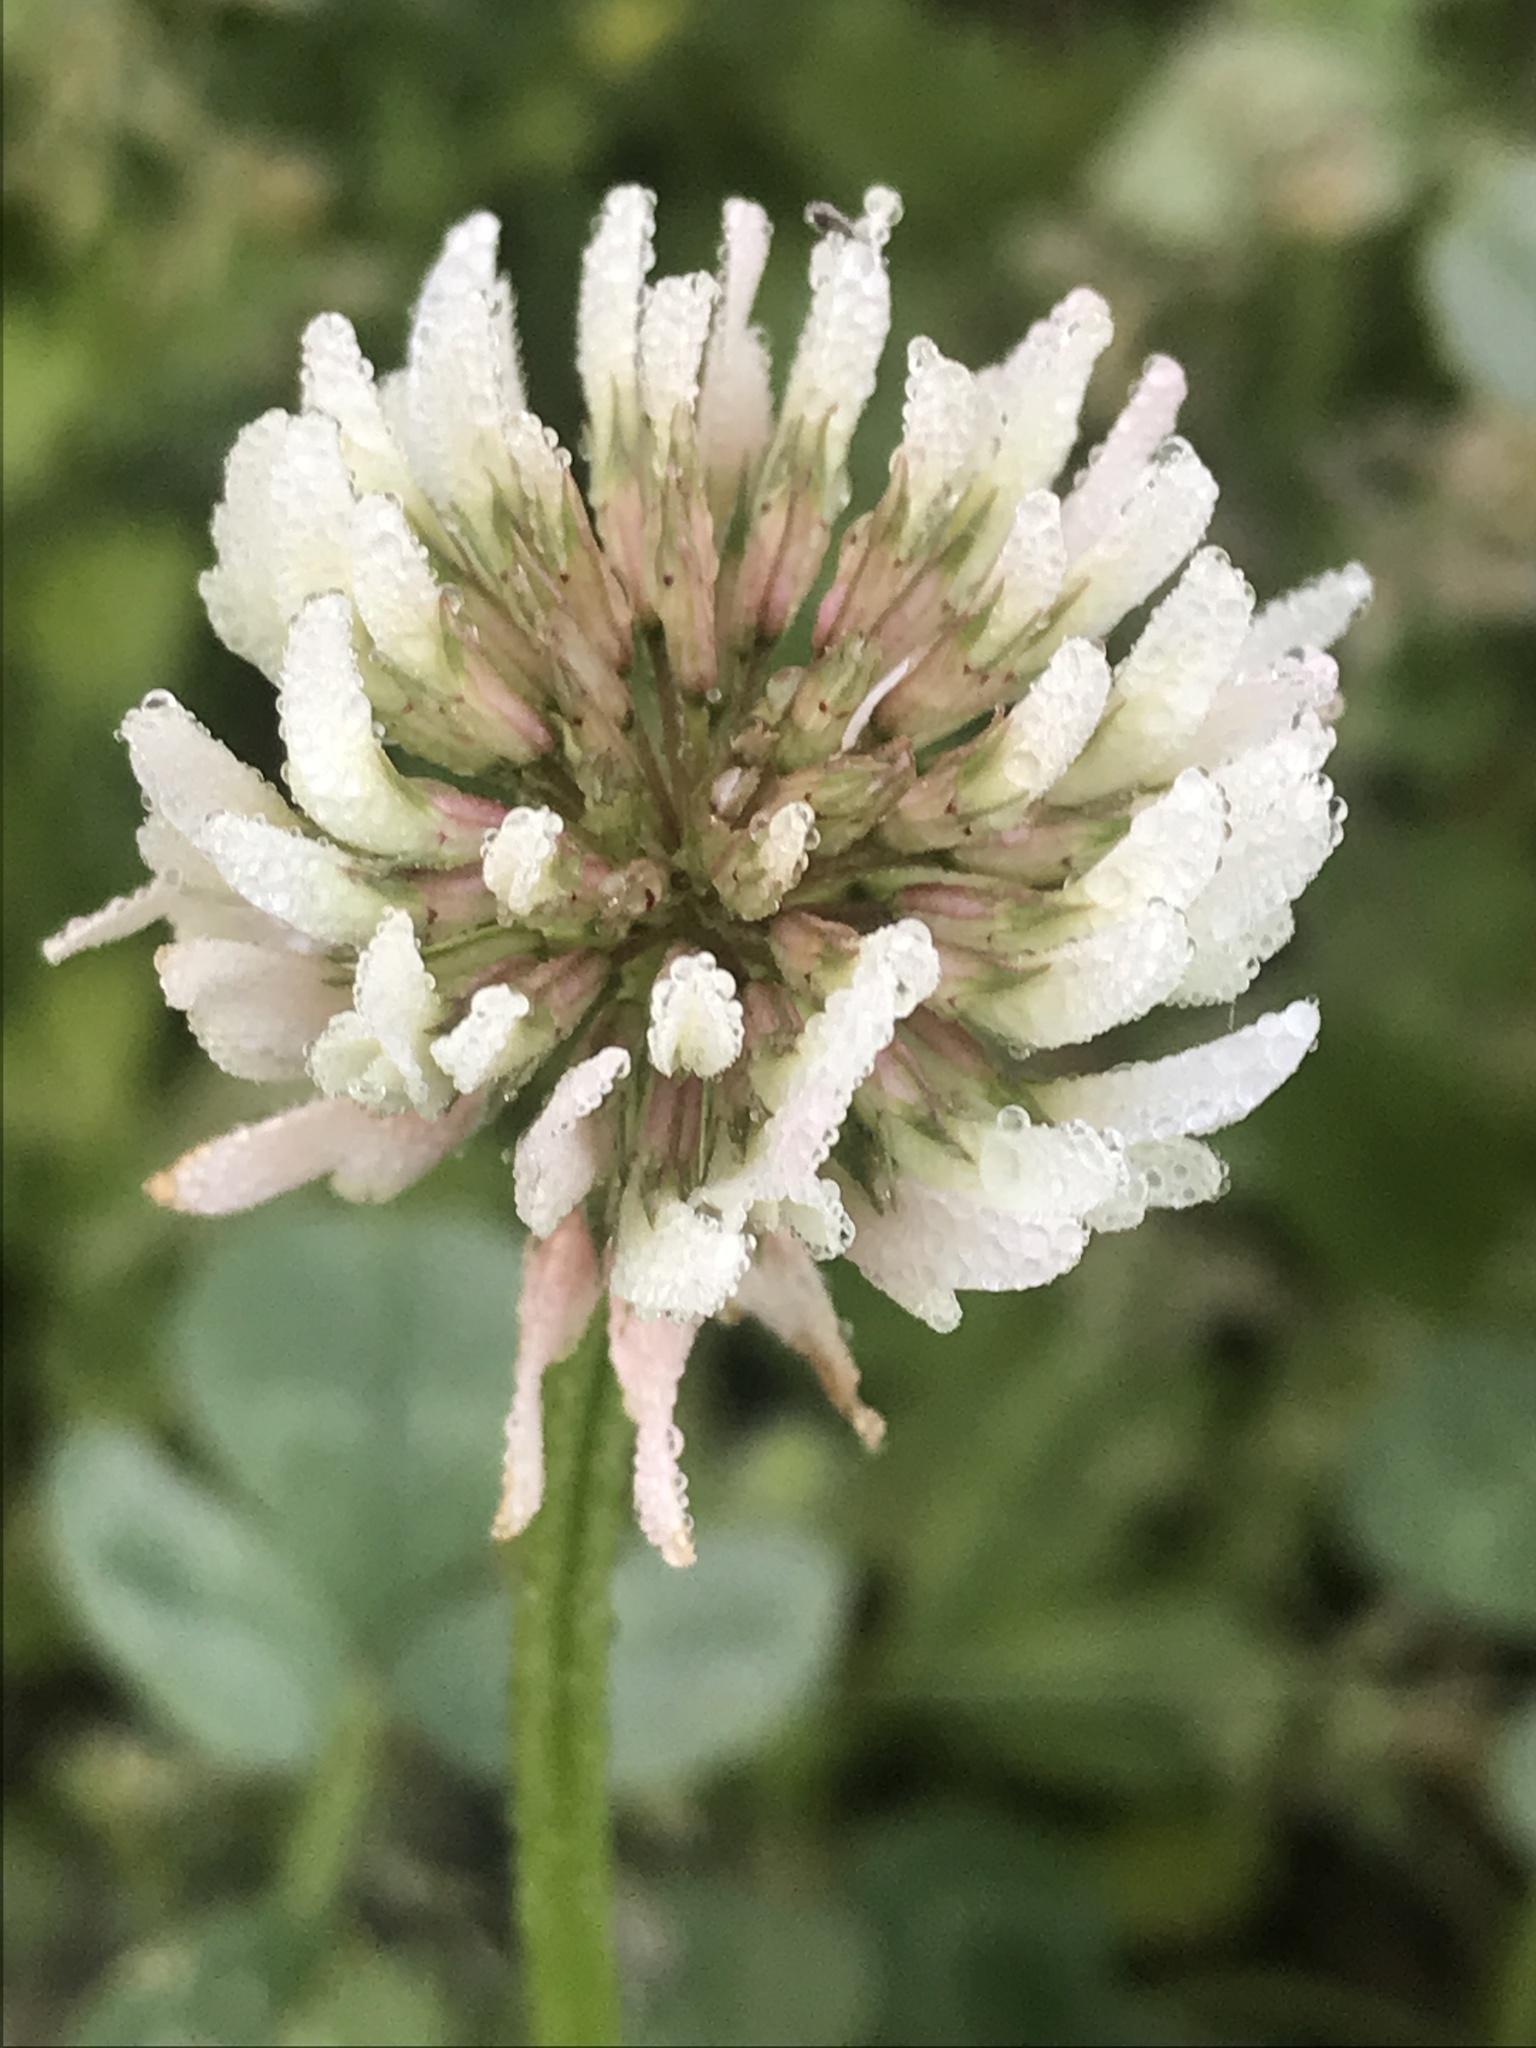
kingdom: Plantae
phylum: Tracheophyta
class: Magnoliopsida
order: Fabales
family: Fabaceae
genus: Trifolium
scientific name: Trifolium repens
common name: White clover
